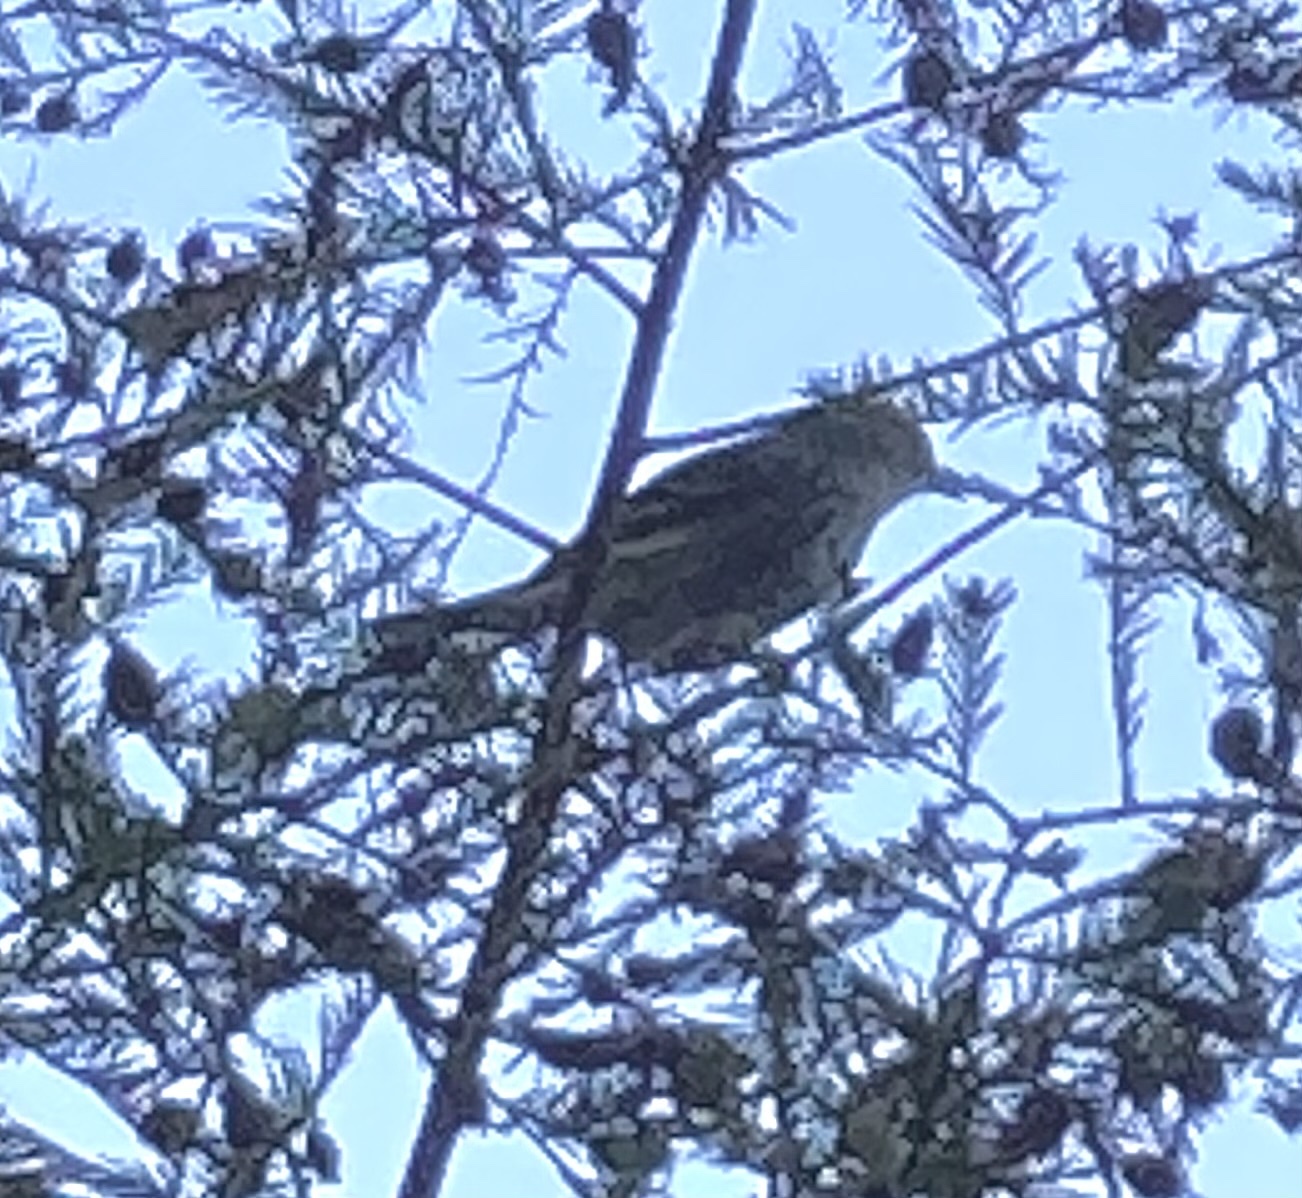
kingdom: Animalia
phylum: Chordata
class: Aves
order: Passeriformes
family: Parulidae
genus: Setophaga
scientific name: Setophaga coronata
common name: Myrtle warbler
